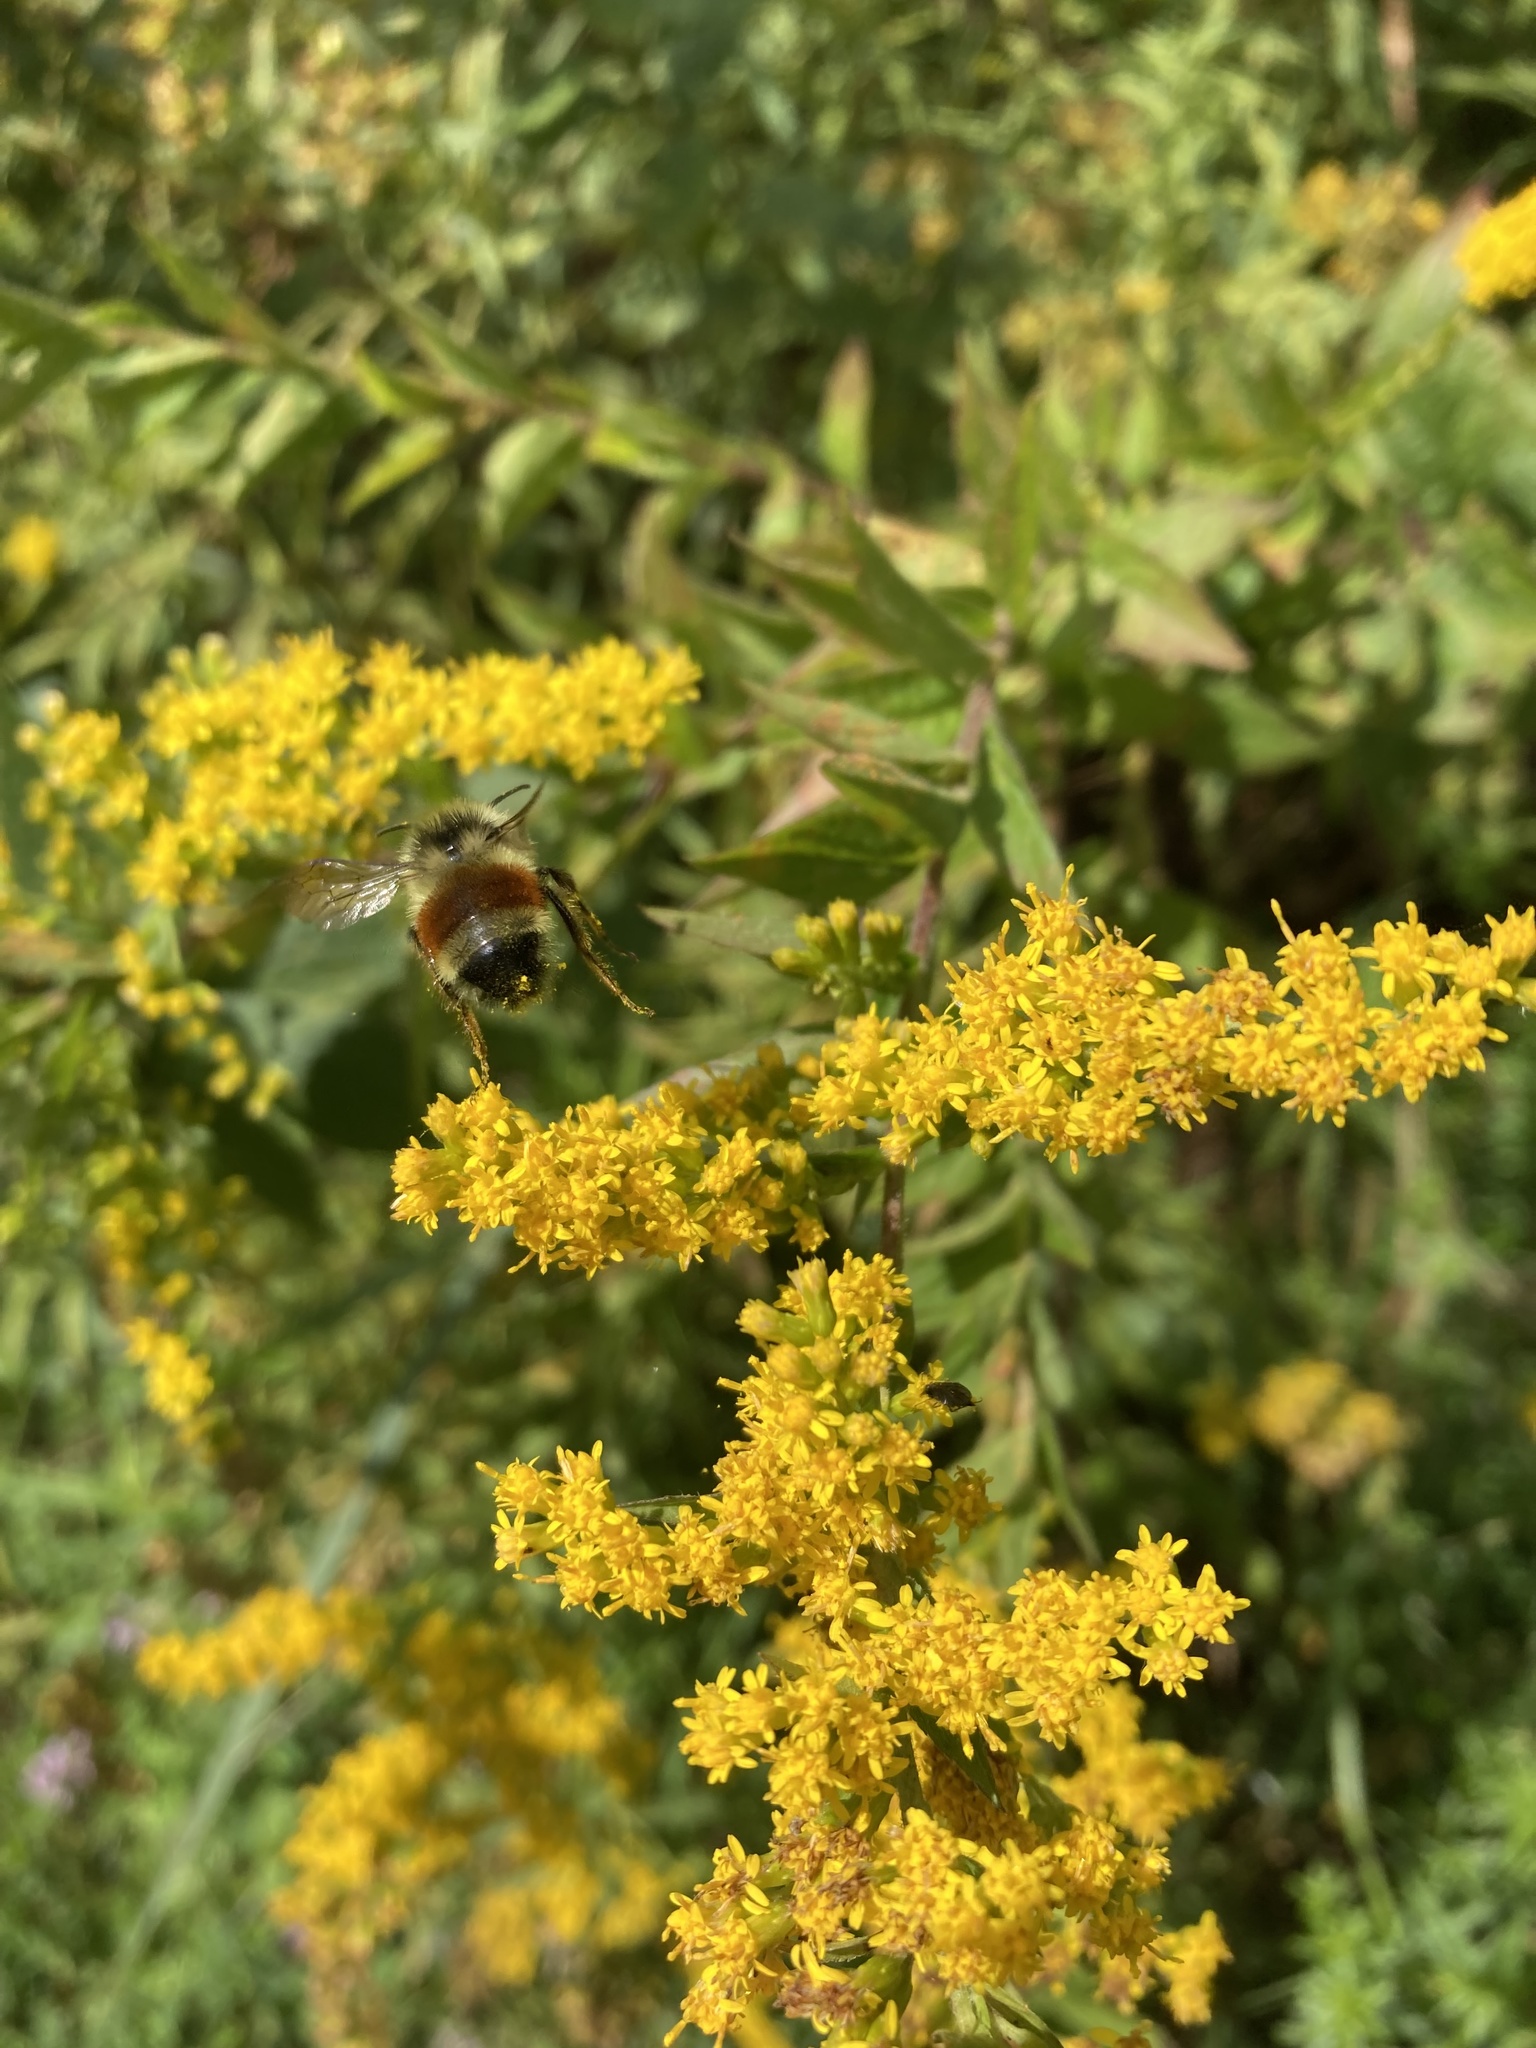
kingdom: Animalia
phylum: Arthropoda
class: Insecta
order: Hymenoptera
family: Apidae
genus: Bombus
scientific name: Bombus ternarius
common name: Tri-colored bumble bee
